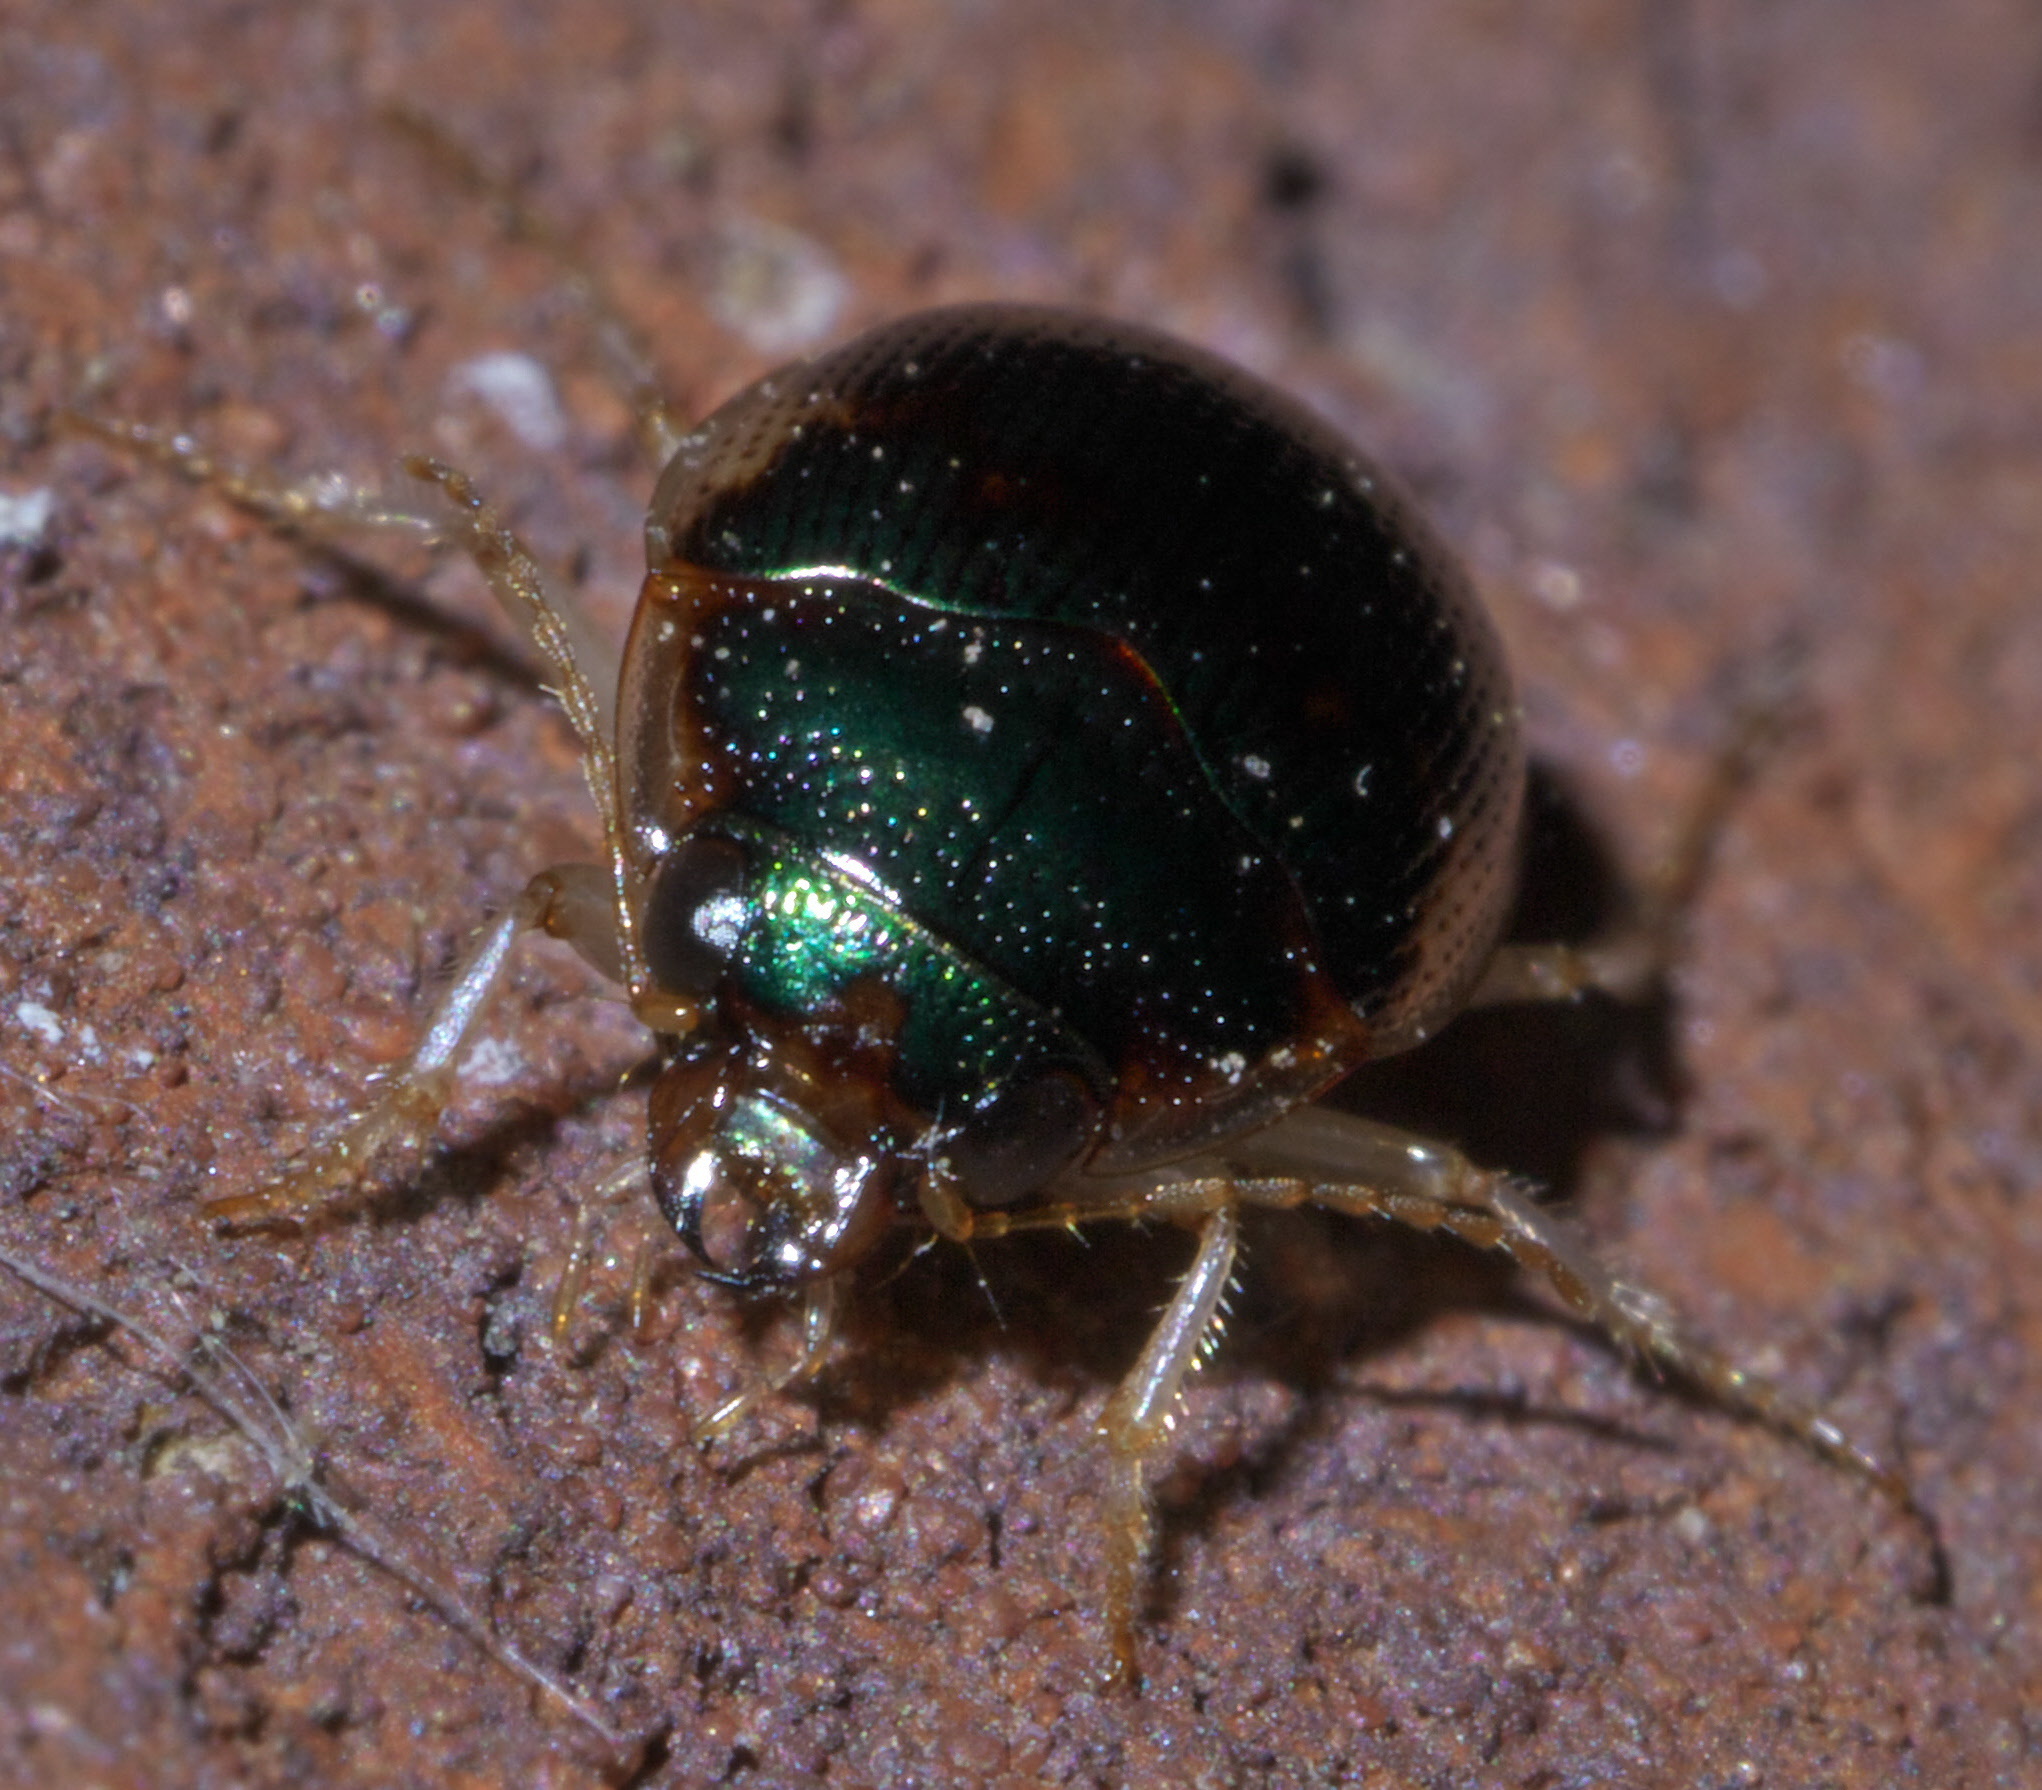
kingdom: Animalia
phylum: Arthropoda
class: Insecta
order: Coleoptera
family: Carabidae
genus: Omophron
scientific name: Omophron nitidum
